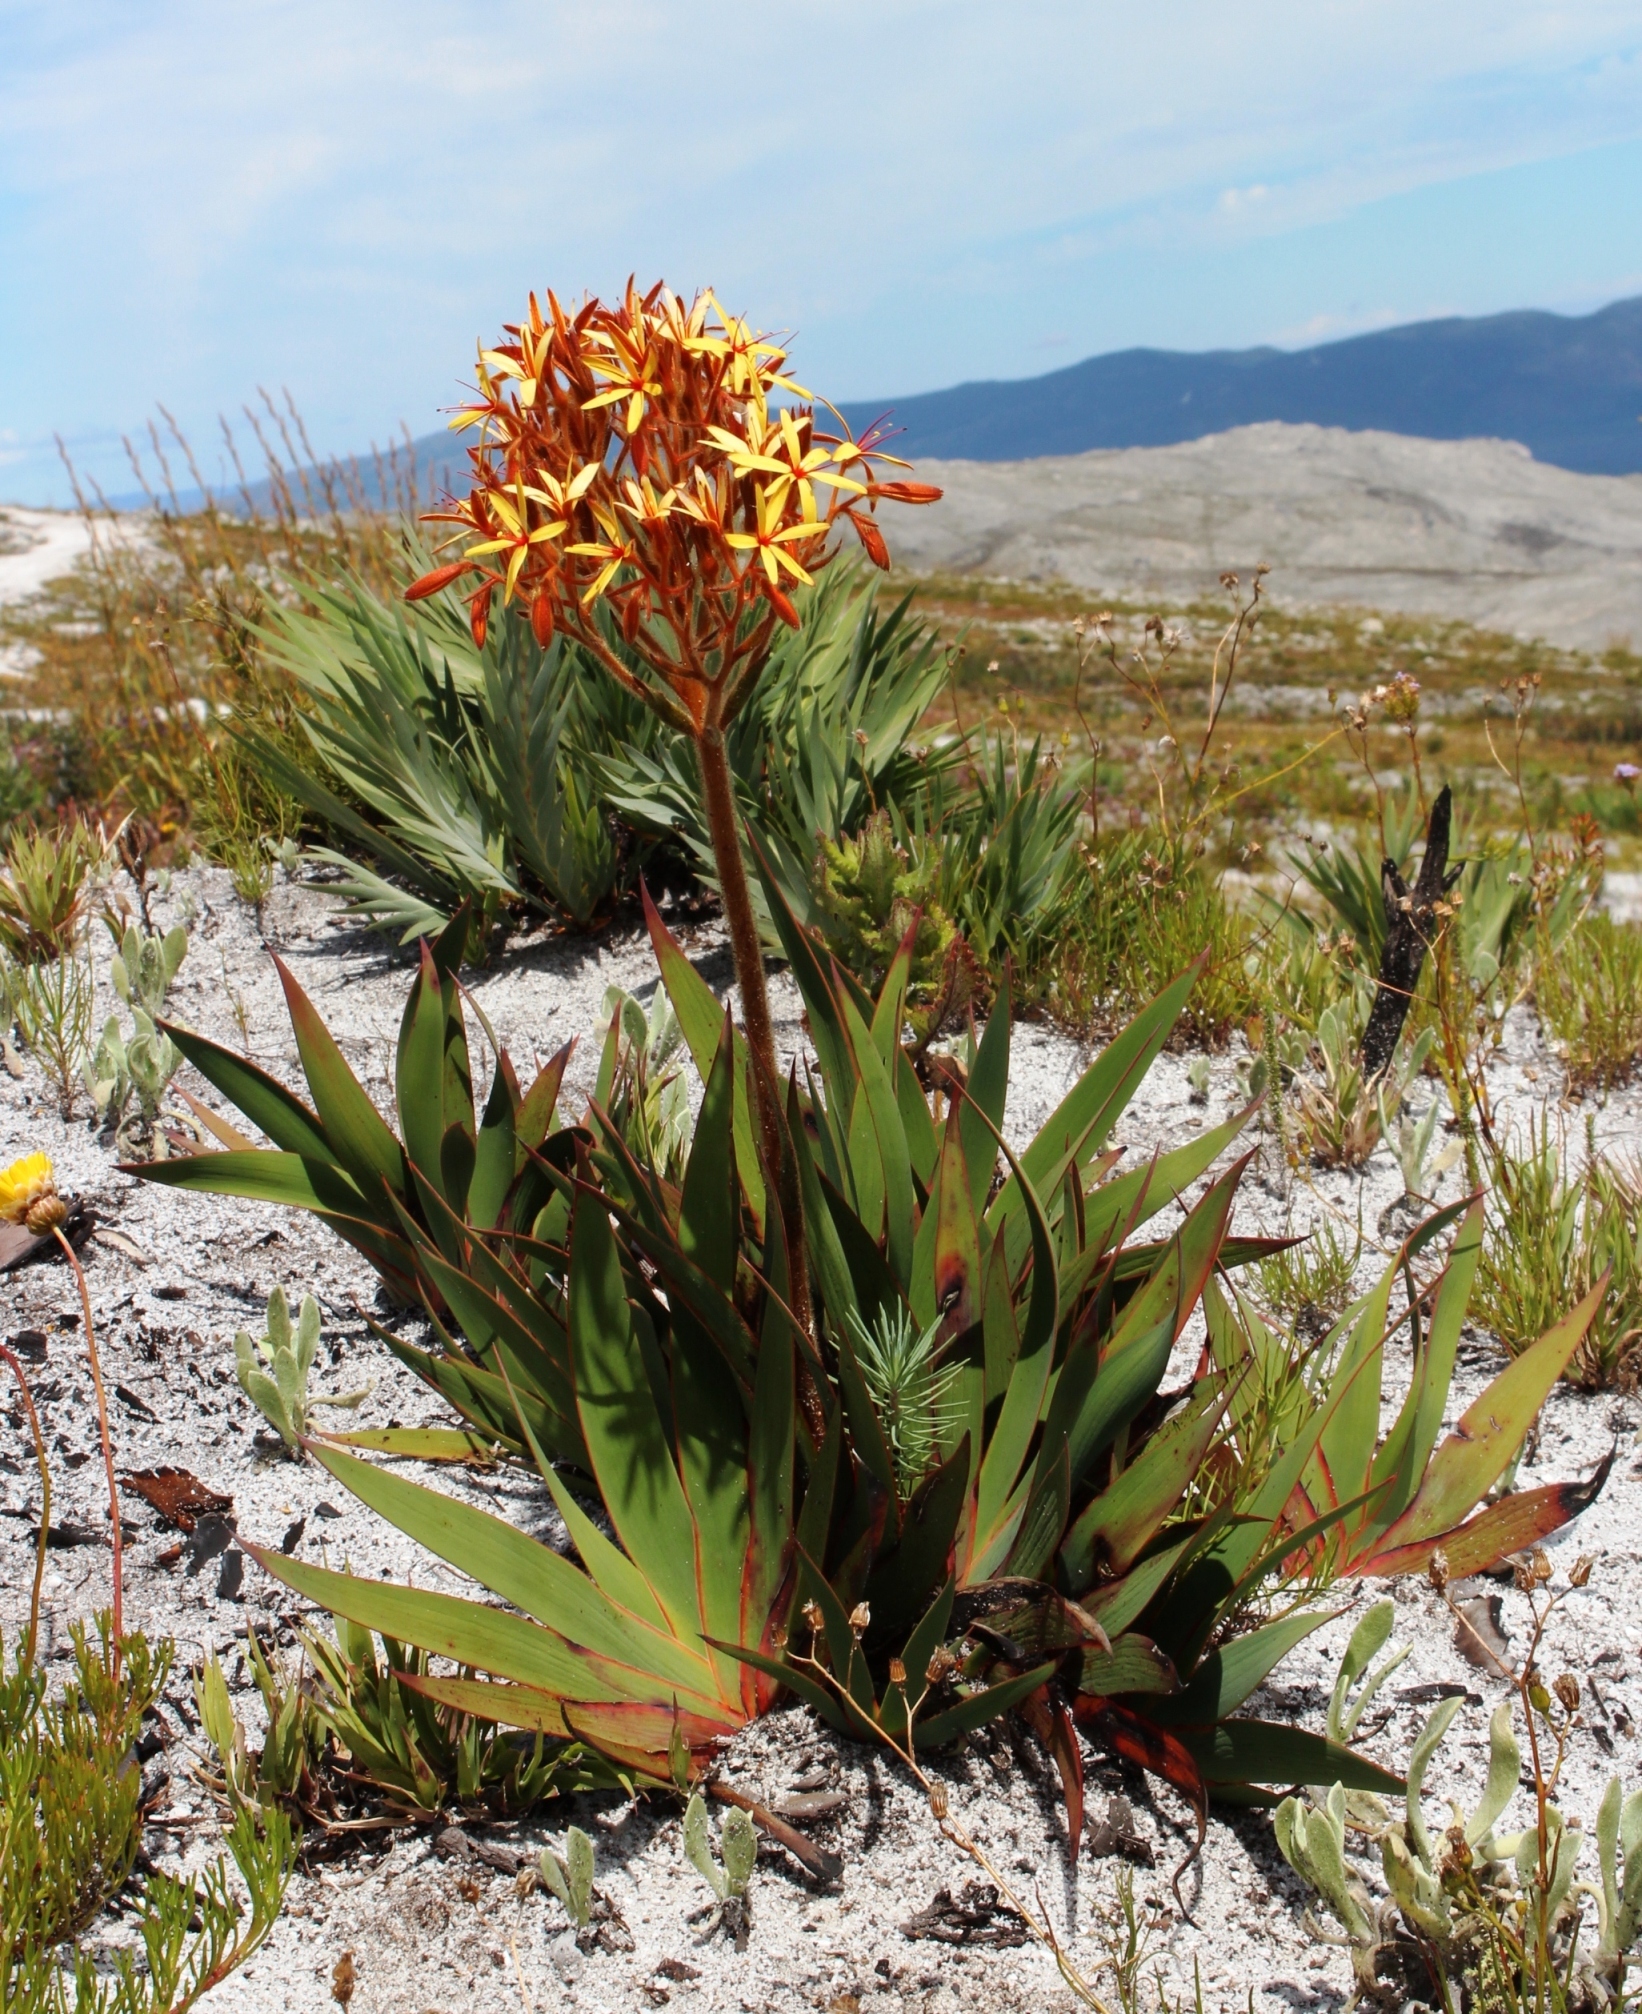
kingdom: Plantae
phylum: Tracheophyta
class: Liliopsida
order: Commelinales
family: Haemodoraceae
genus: Dilatris
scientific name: Dilatris viscosa
